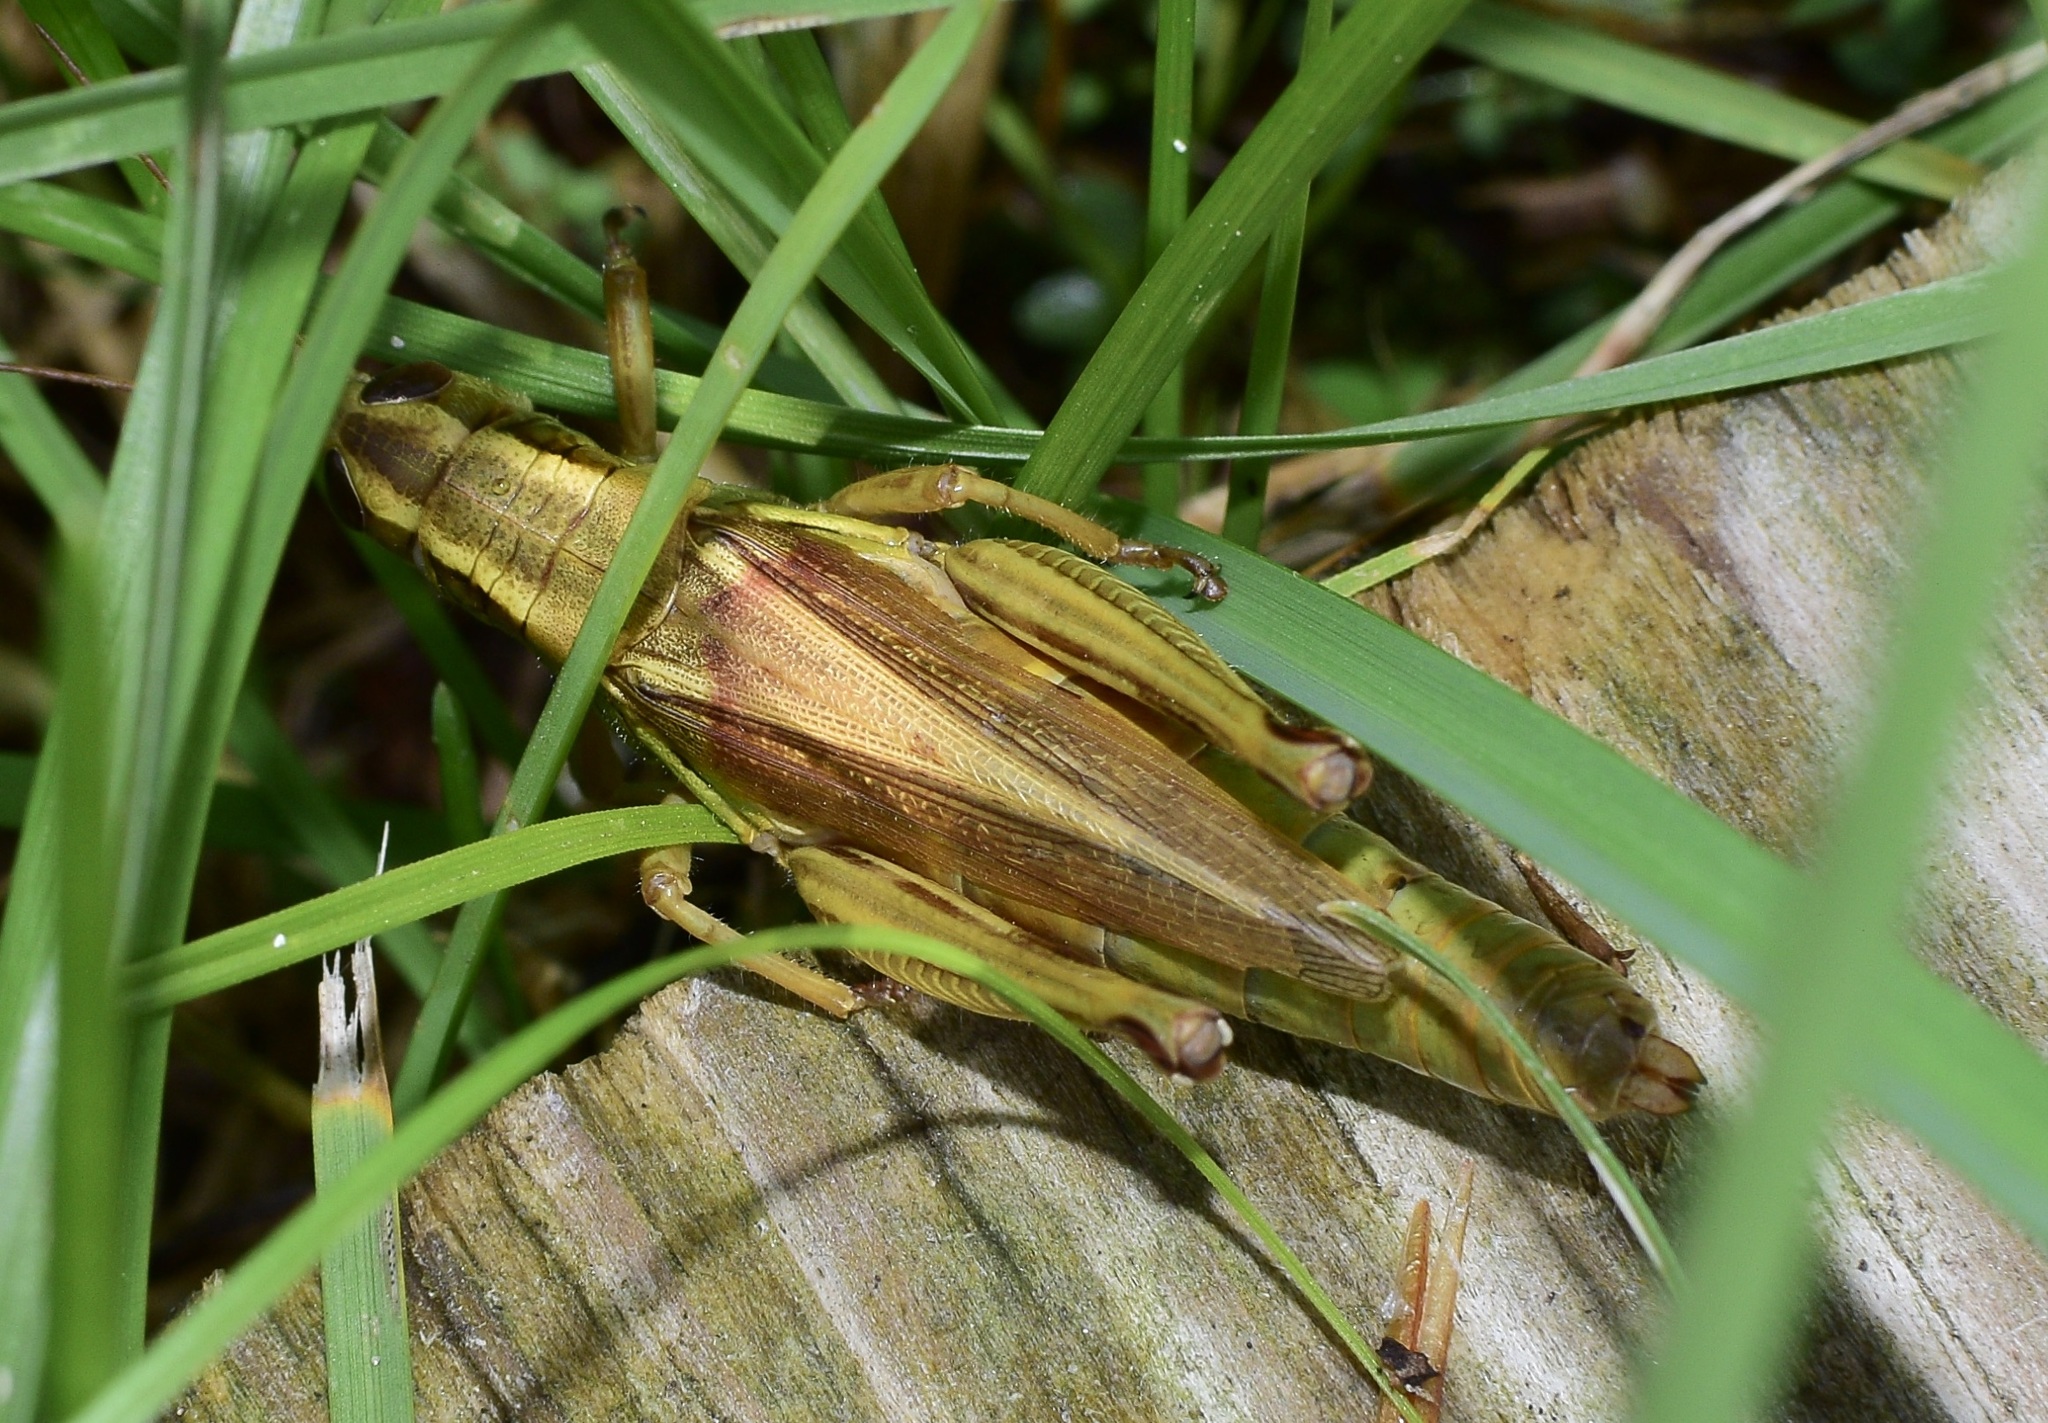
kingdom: Animalia
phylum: Arthropoda
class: Insecta
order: Orthoptera
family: Acrididae
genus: Melanoplus
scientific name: Melanoplus bivittatus
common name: Two-striped grasshopper
